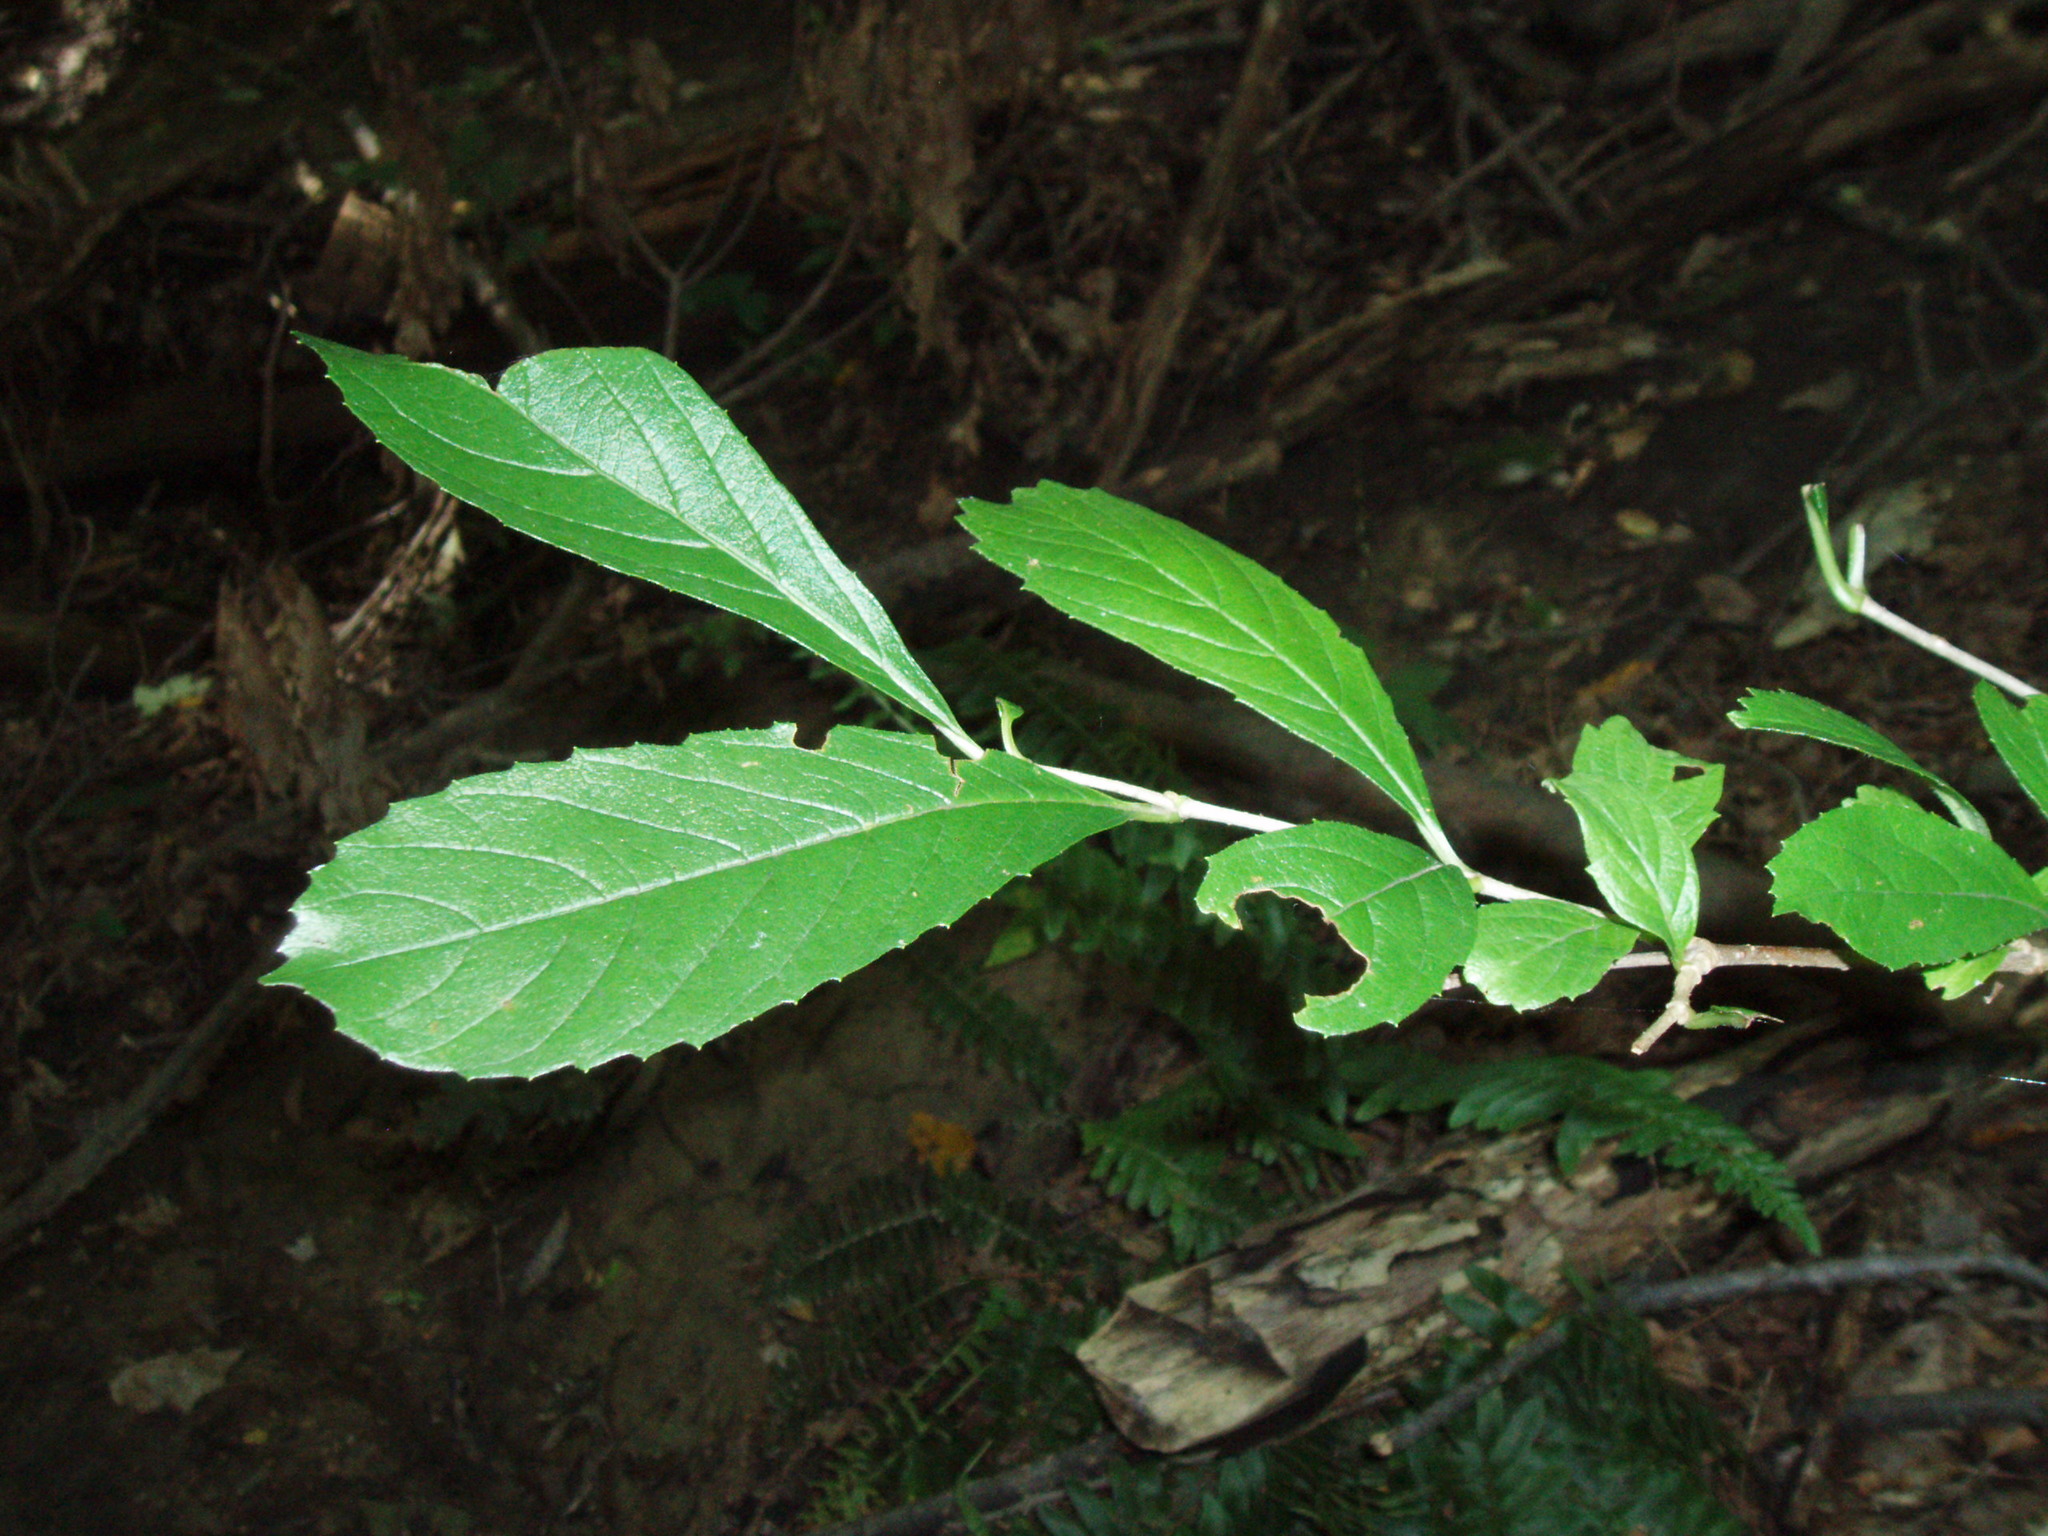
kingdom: Plantae
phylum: Tracheophyta
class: Magnoliopsida
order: Dipsacales
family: Viburnaceae
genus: Viburnum
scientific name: Viburnum sieboldii
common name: Siebold's arrowwood
